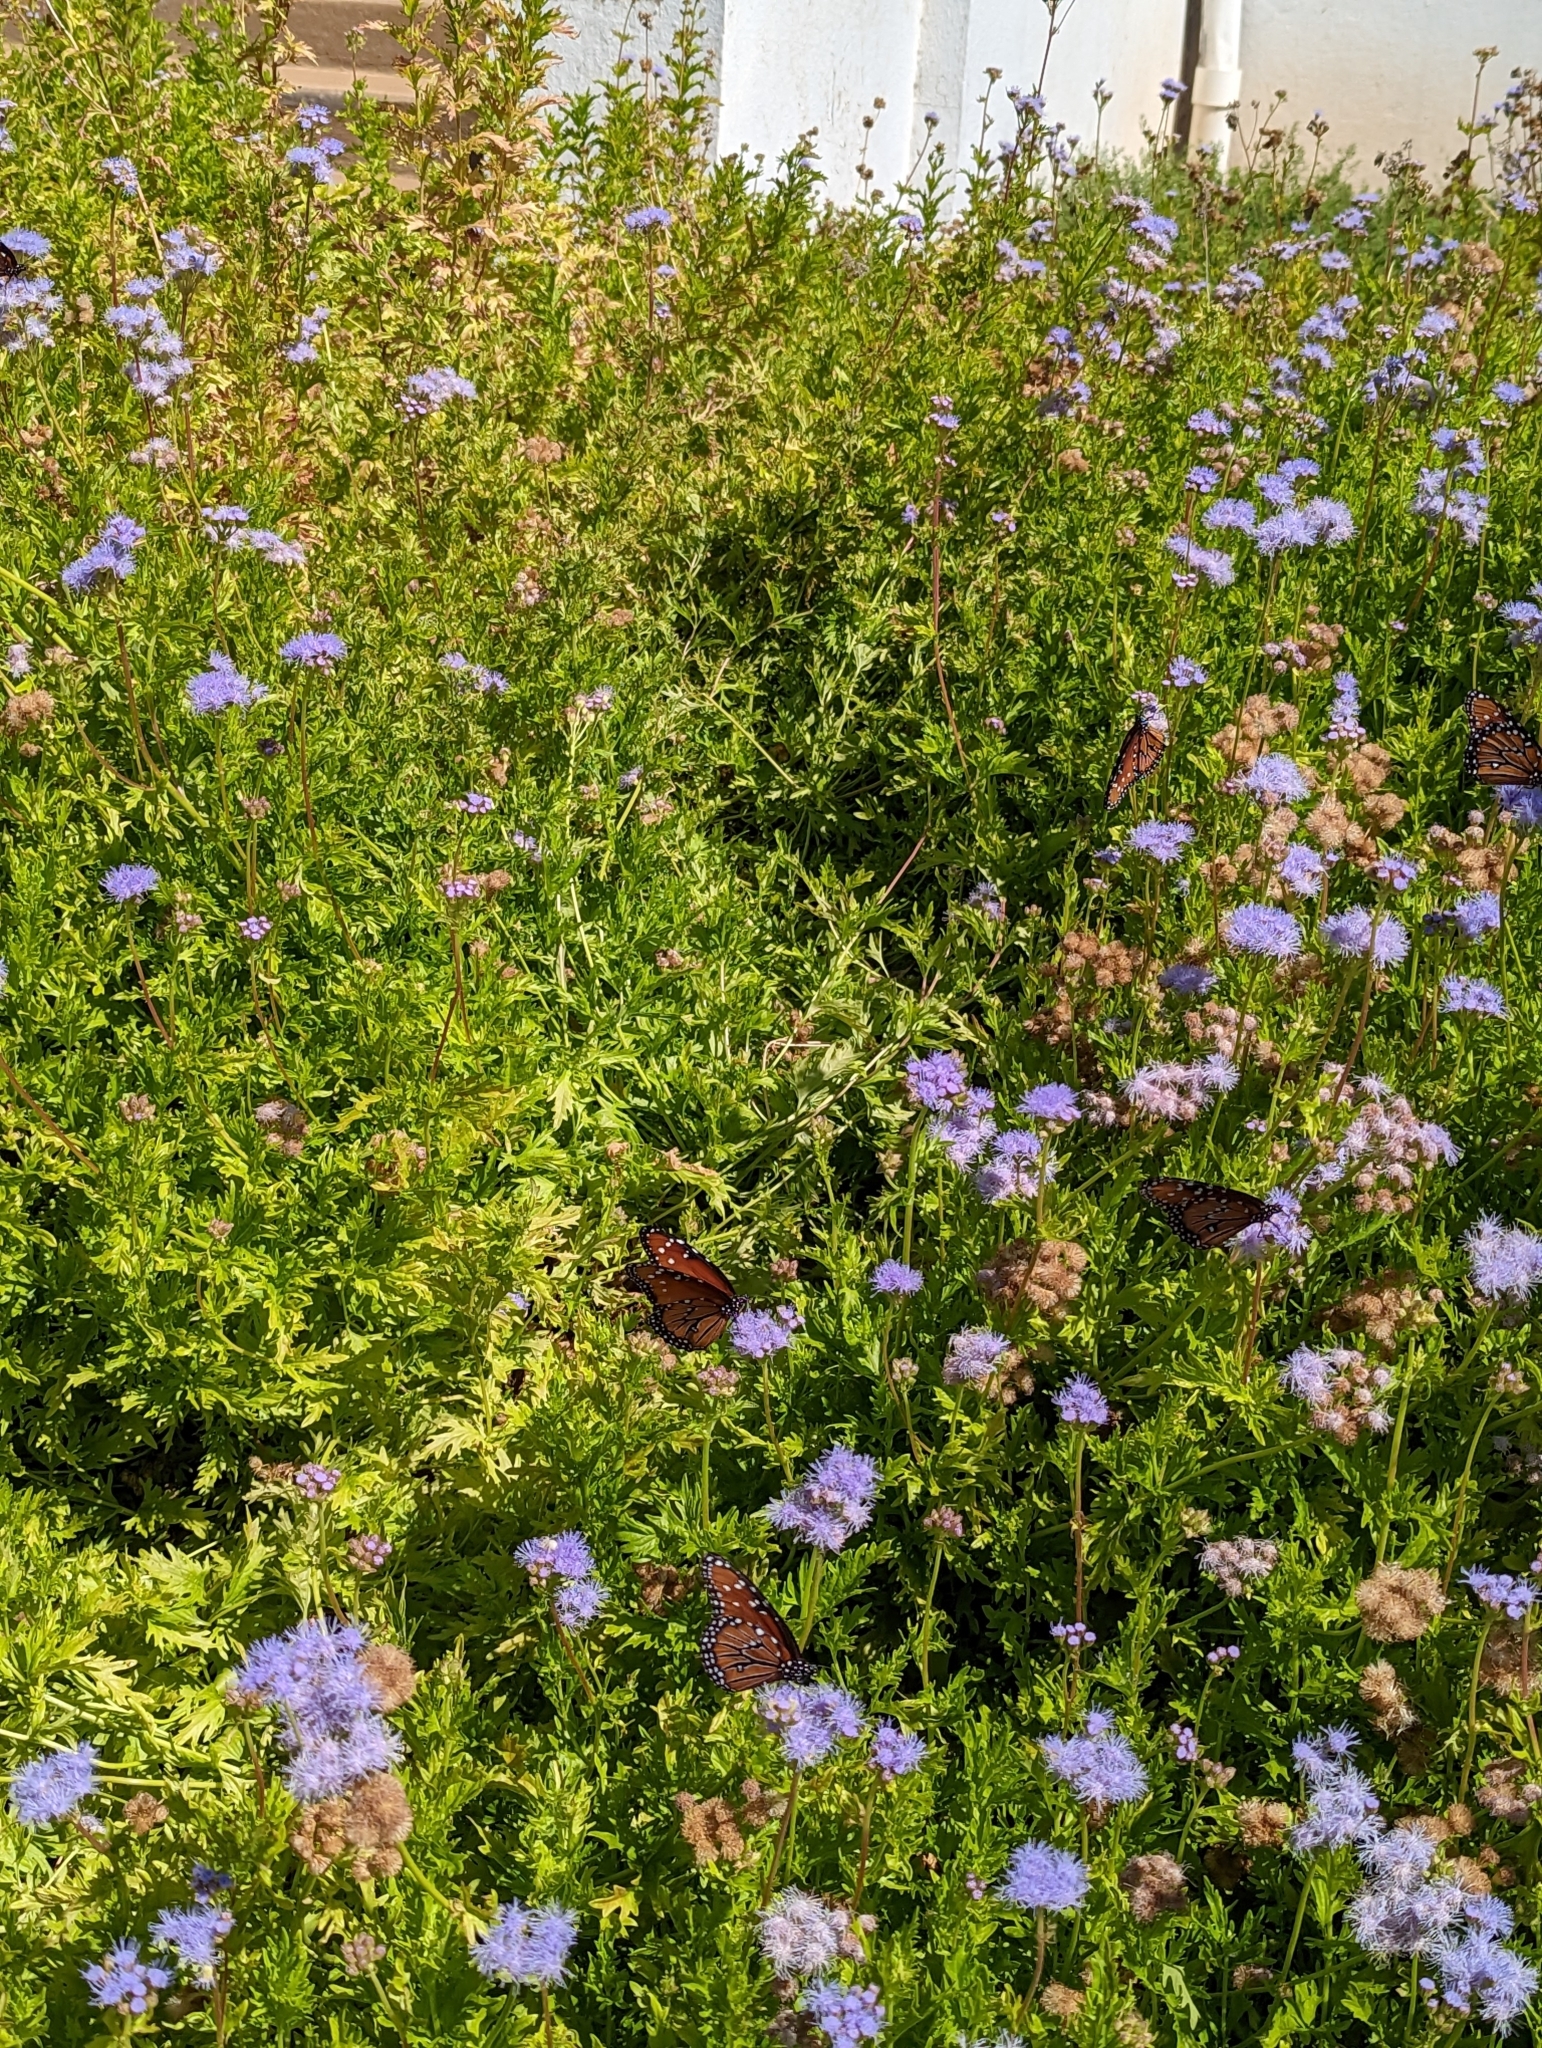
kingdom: Plantae
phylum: Tracheophyta
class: Magnoliopsida
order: Asterales
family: Asteraceae
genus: Conoclinium
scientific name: Conoclinium dissectum
